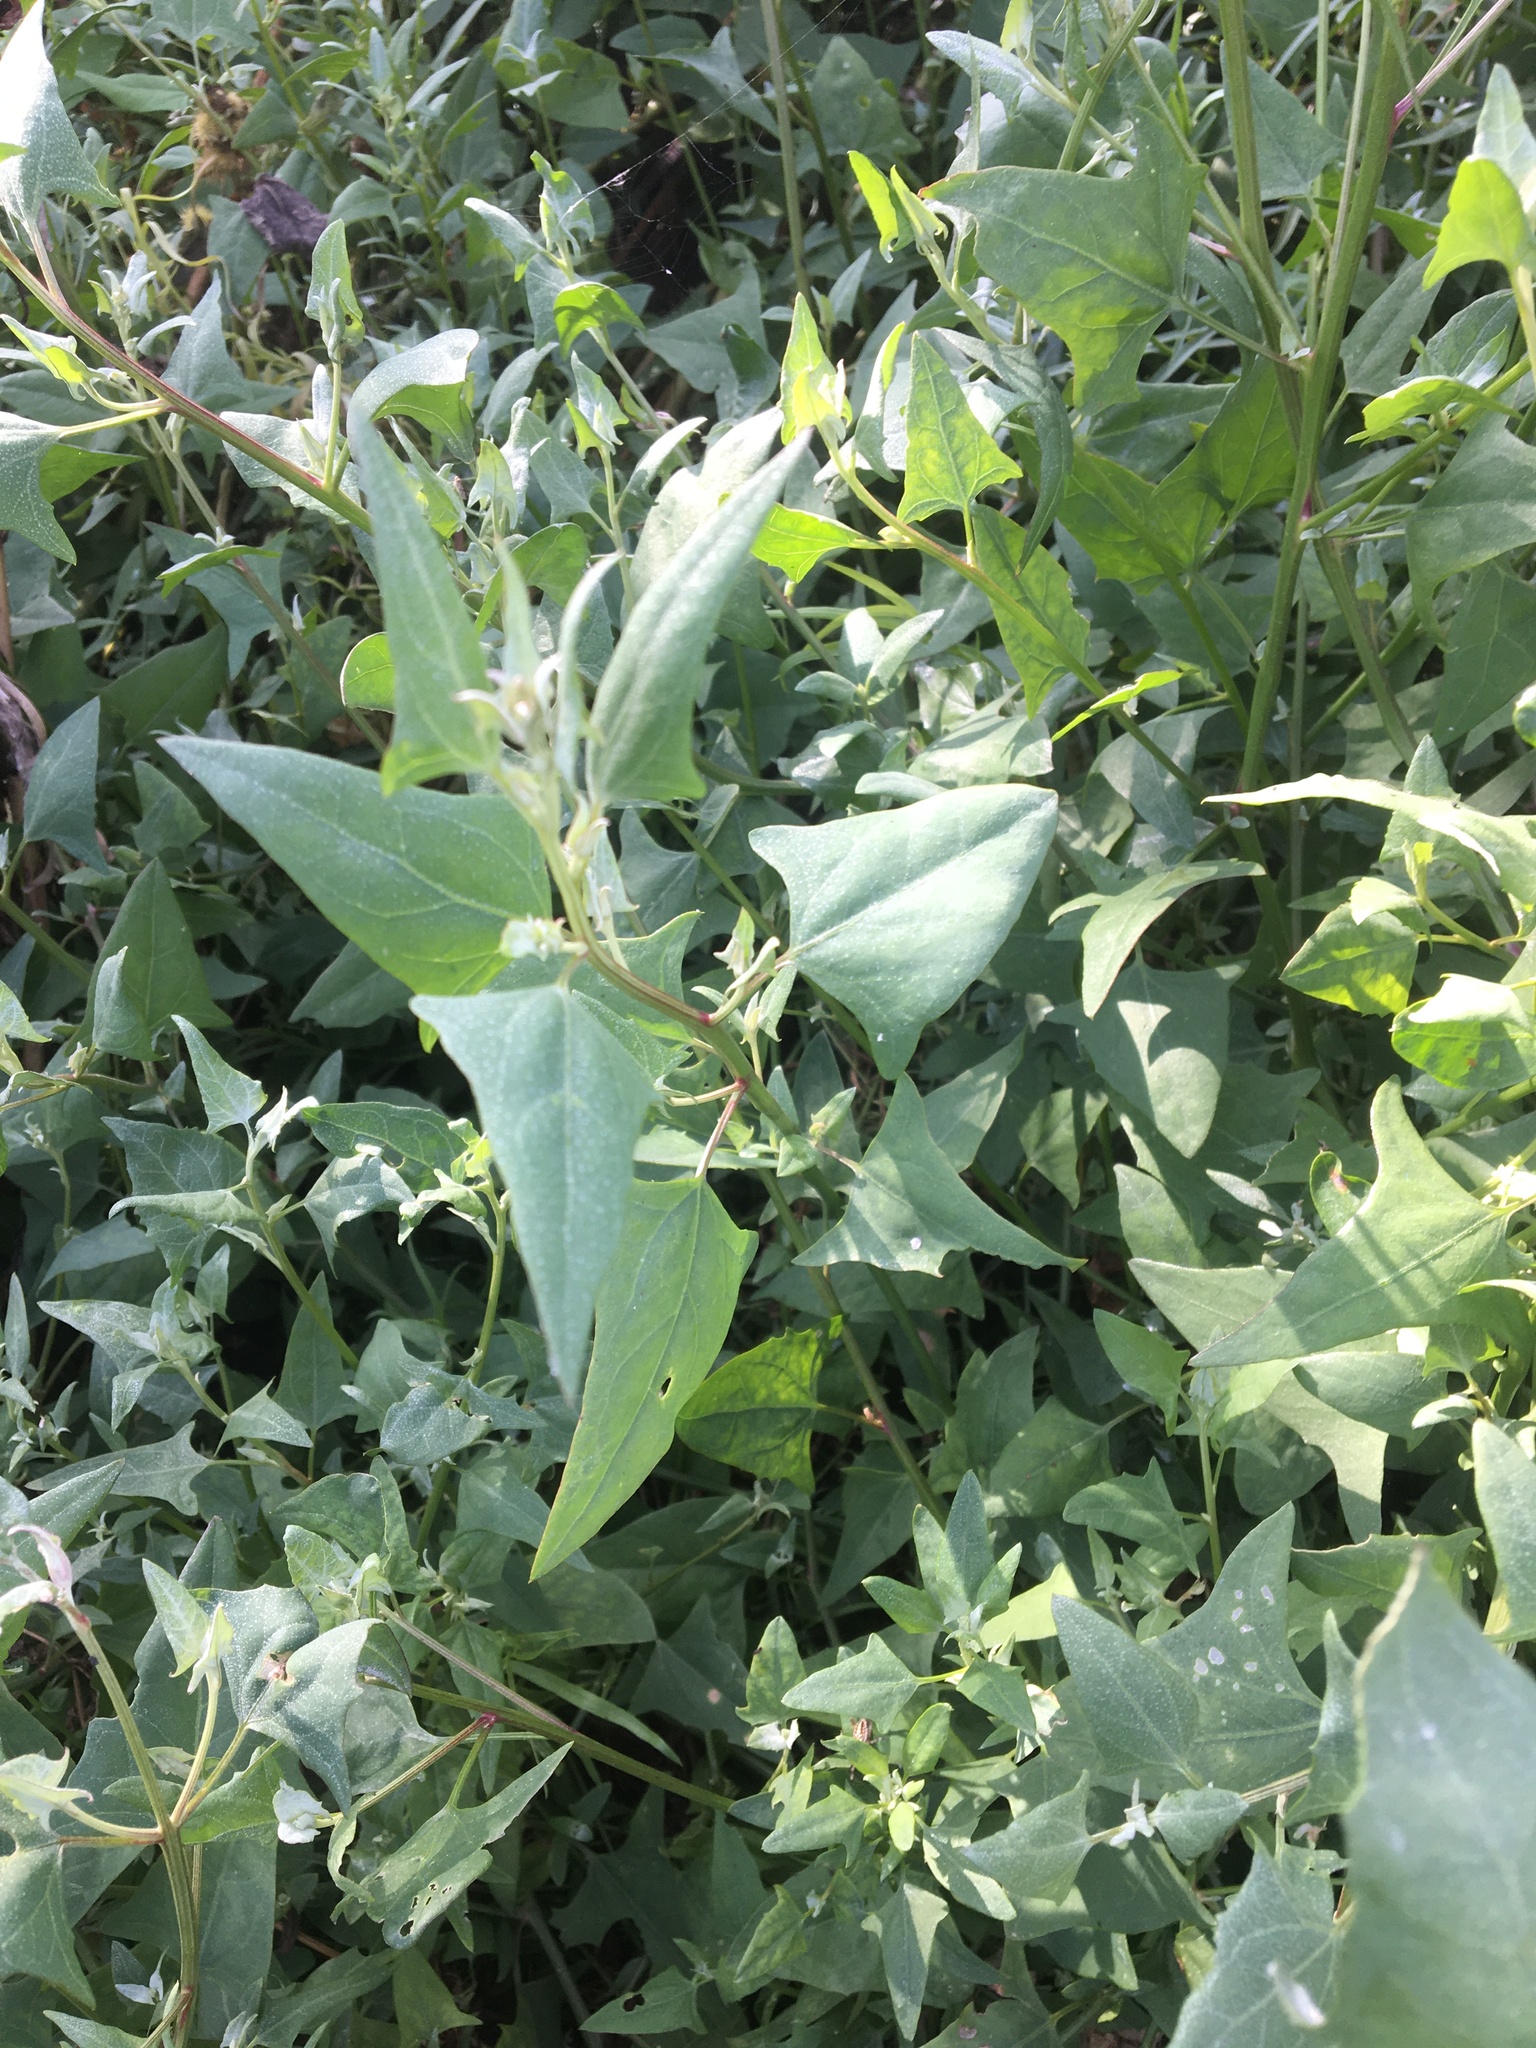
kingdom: Plantae
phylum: Tracheophyta
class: Magnoliopsida
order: Caryophyllales
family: Amaranthaceae
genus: Atriplex
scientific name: Atriplex prostrata
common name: Spear-leaved orache
